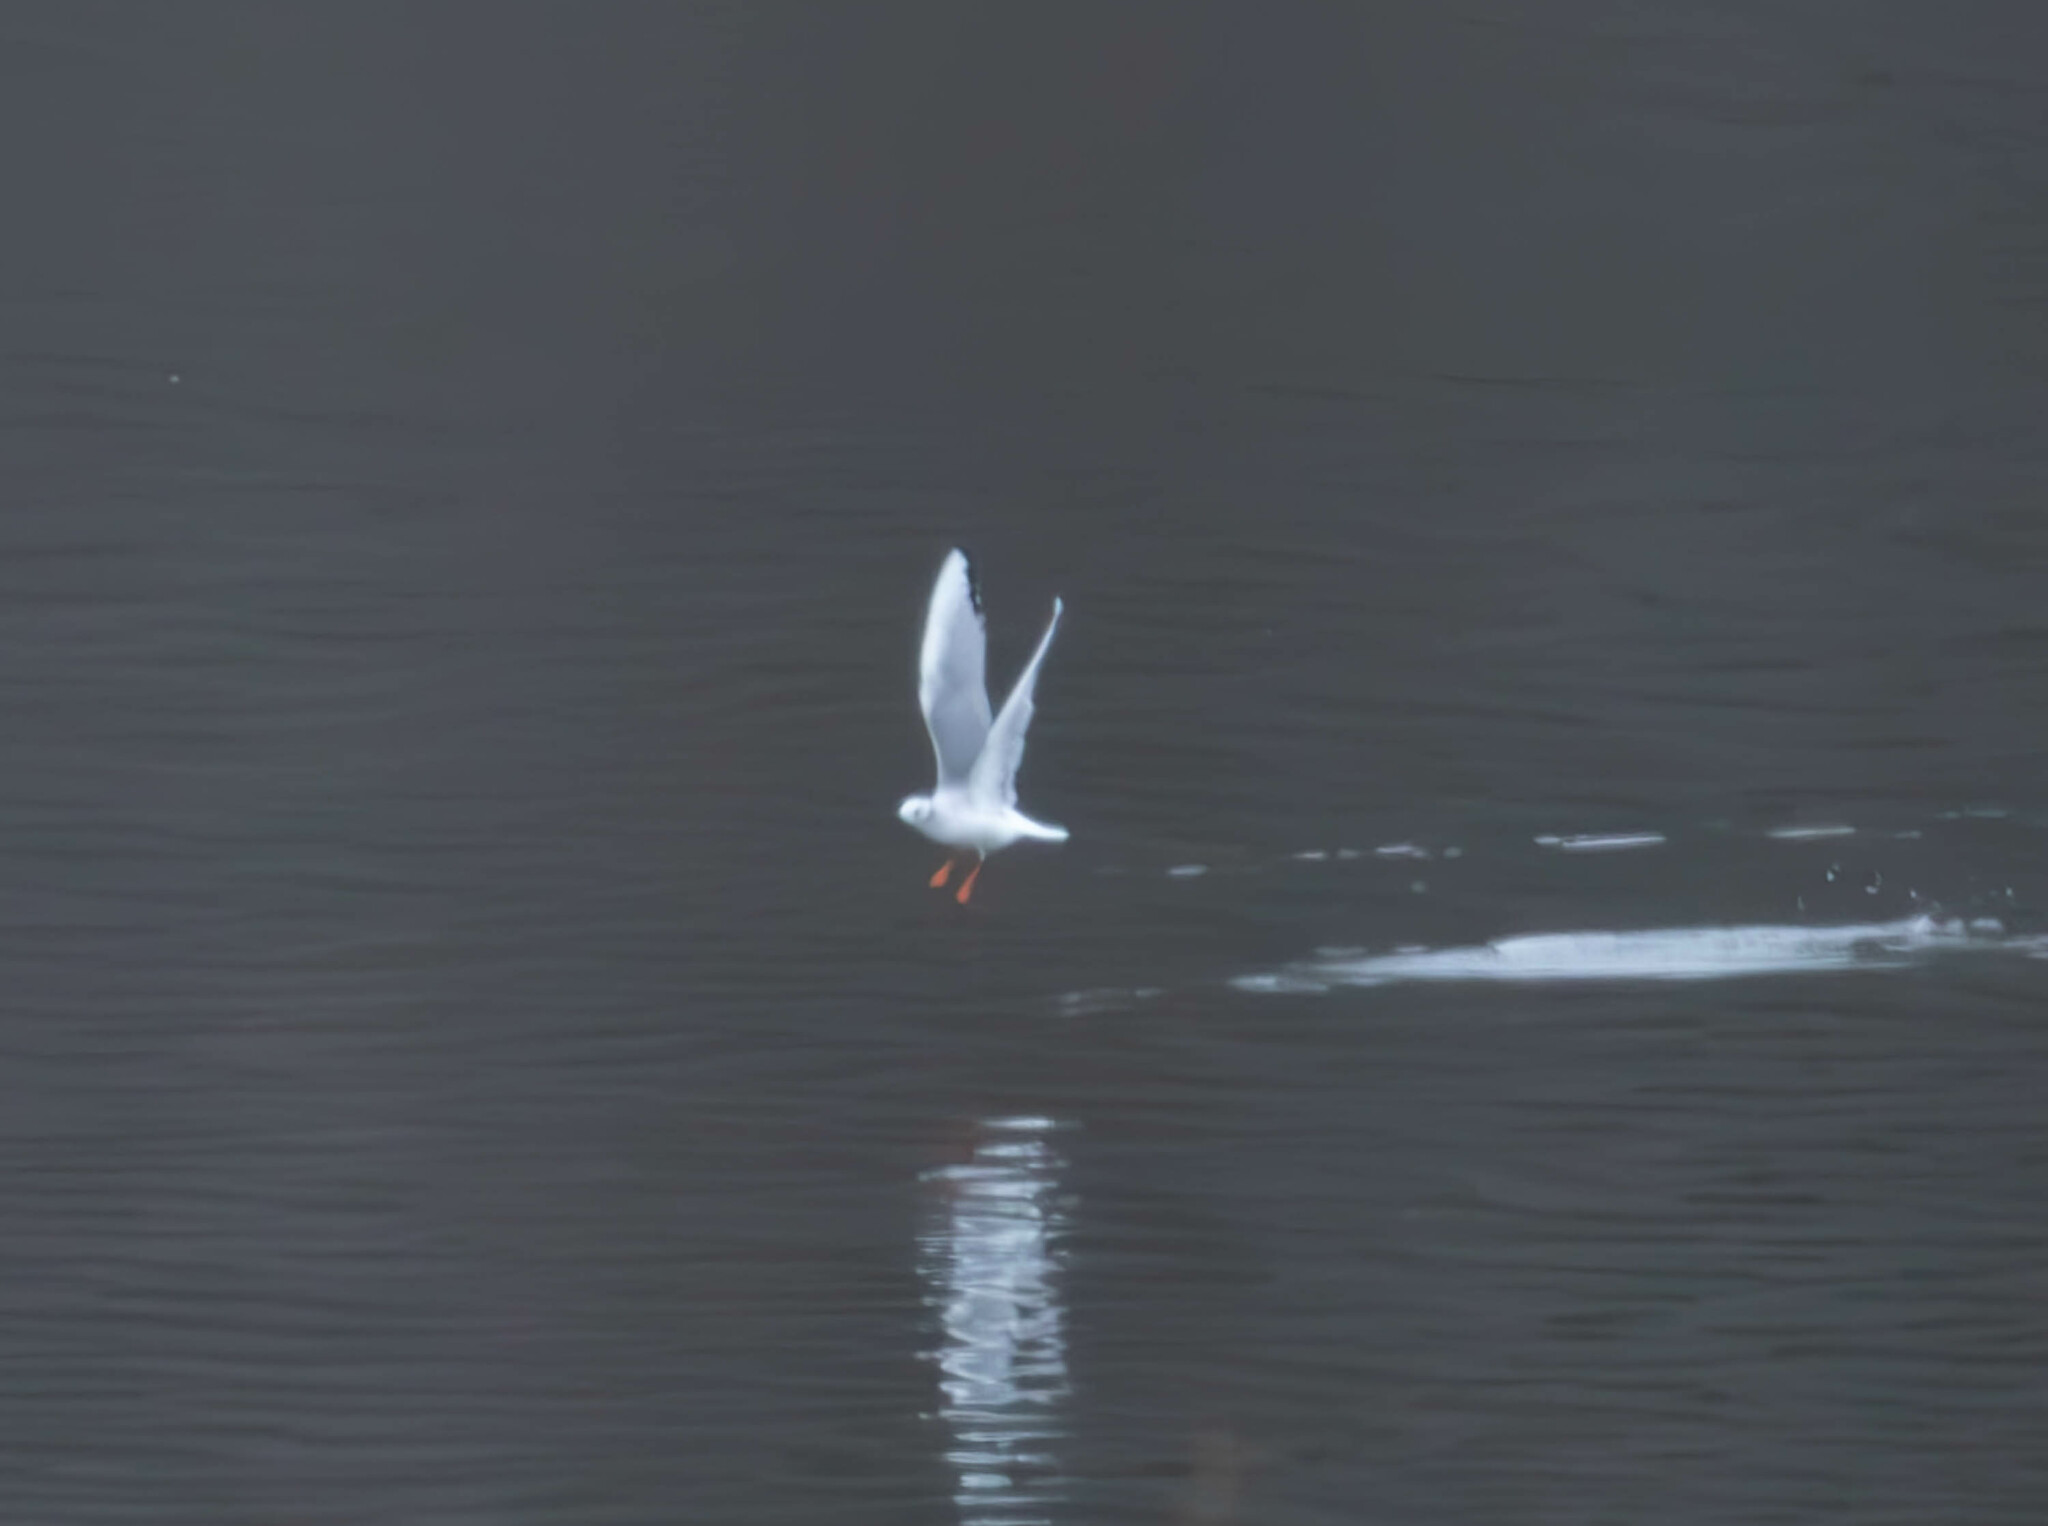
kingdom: Animalia
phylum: Chordata
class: Aves
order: Charadriiformes
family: Laridae
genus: Chroicocephalus
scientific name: Chroicocephalus philadelphia
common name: Bonaparte's gull
